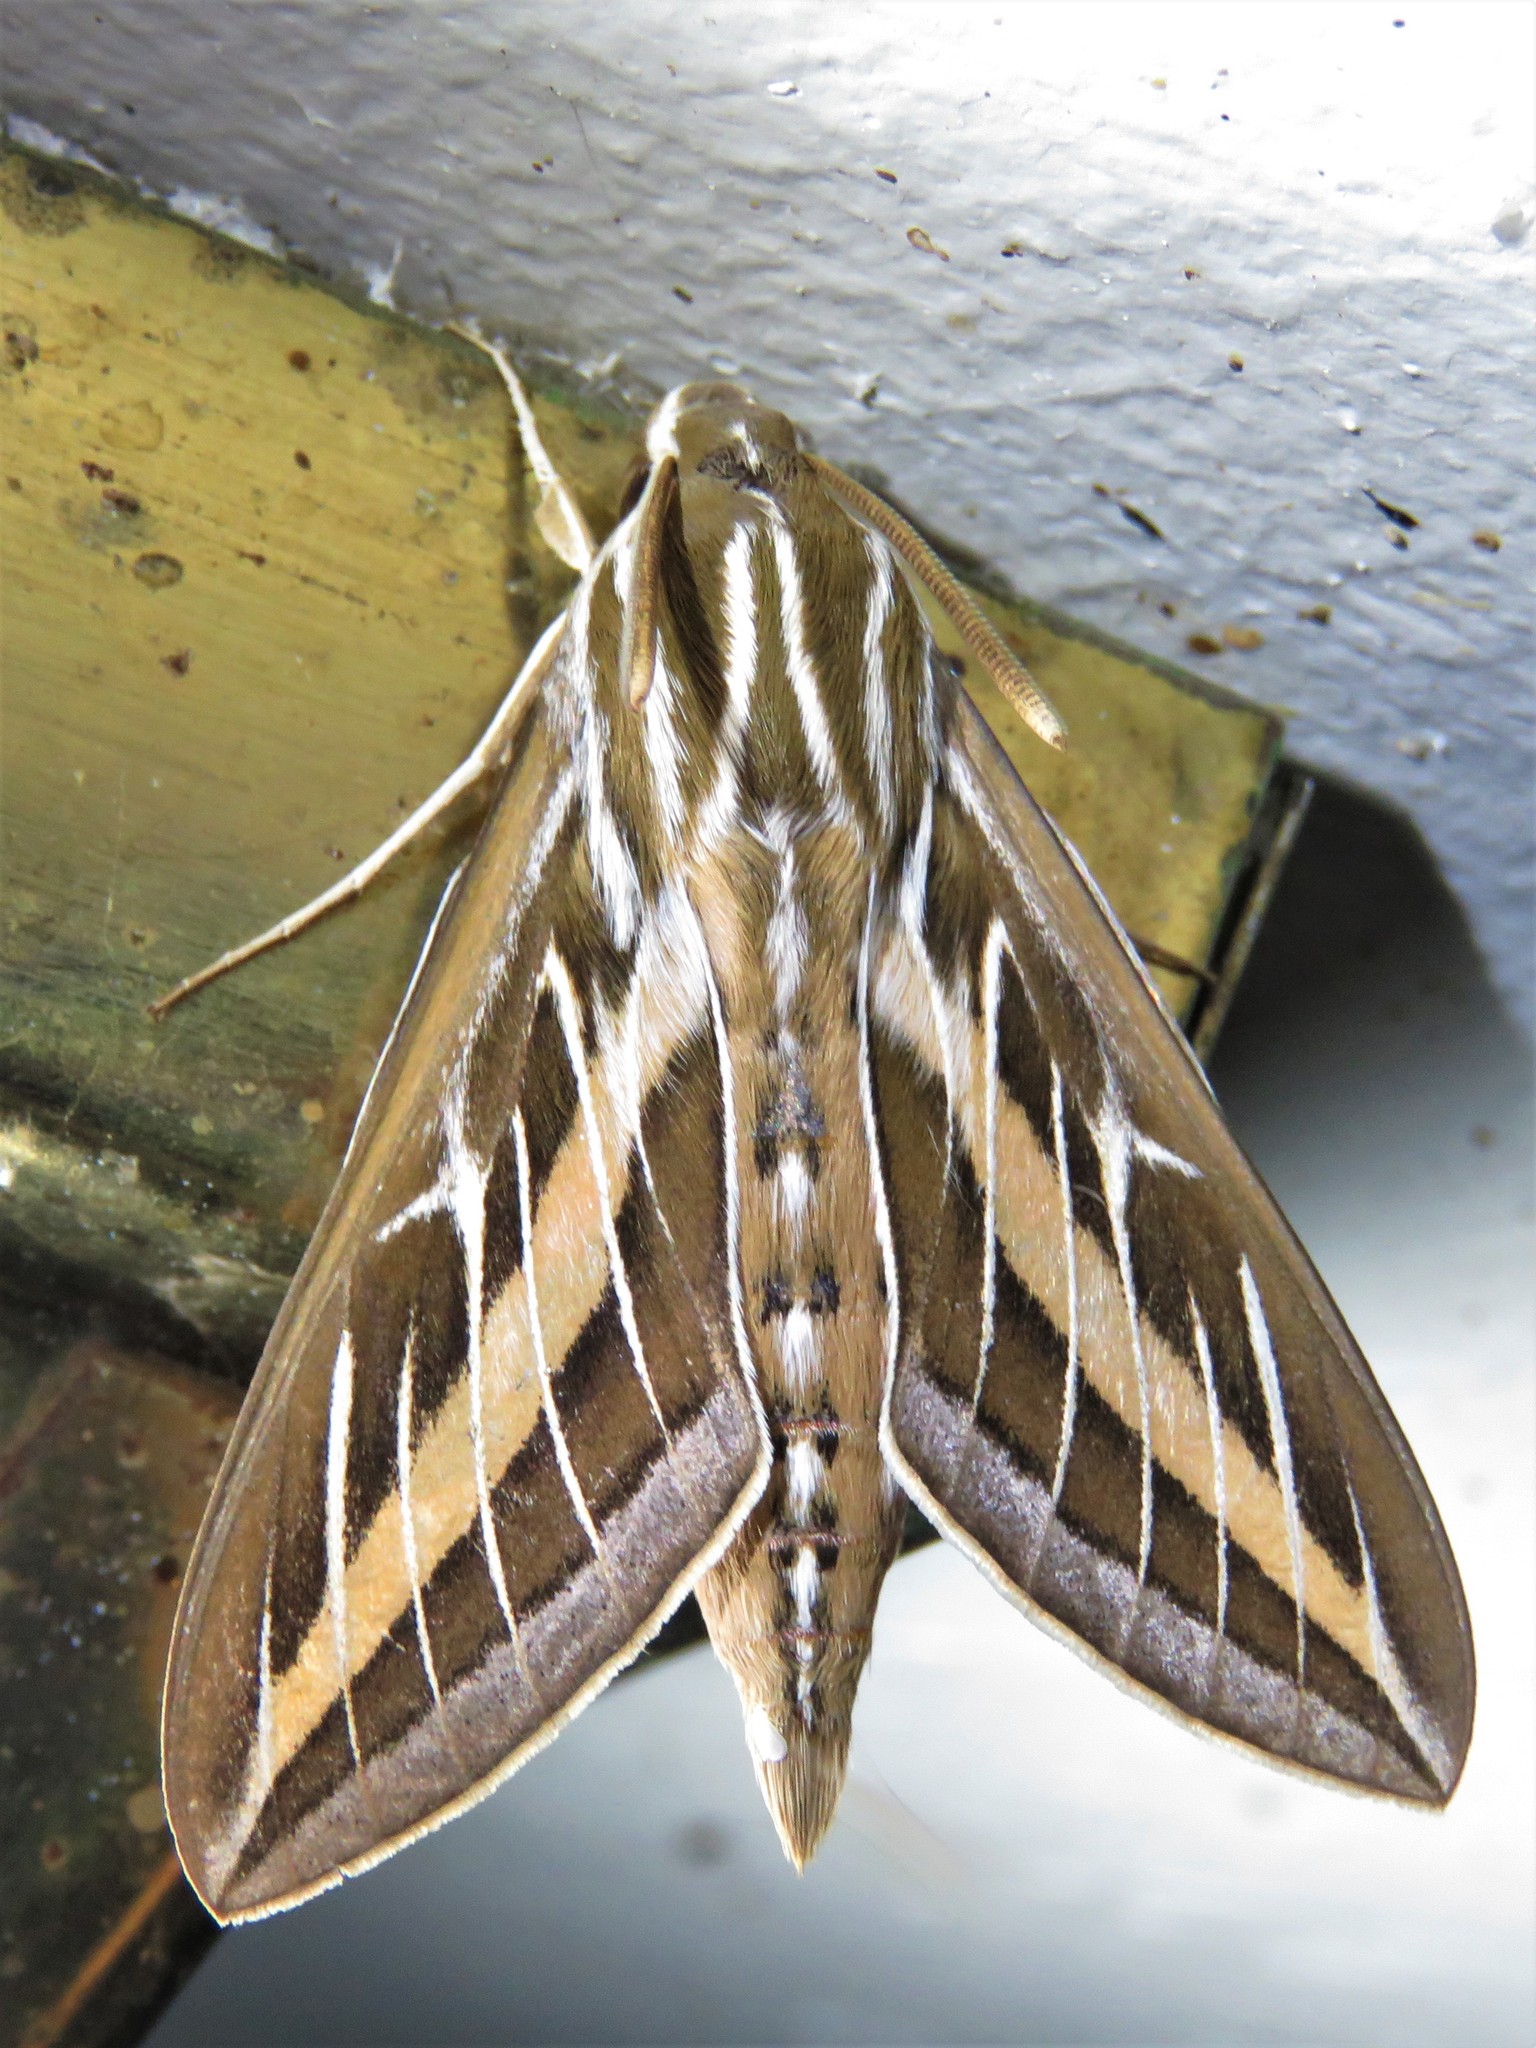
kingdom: Animalia
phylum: Arthropoda
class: Insecta
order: Lepidoptera
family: Sphingidae
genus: Hyles
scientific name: Hyles lineata
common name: White-lined sphinx
